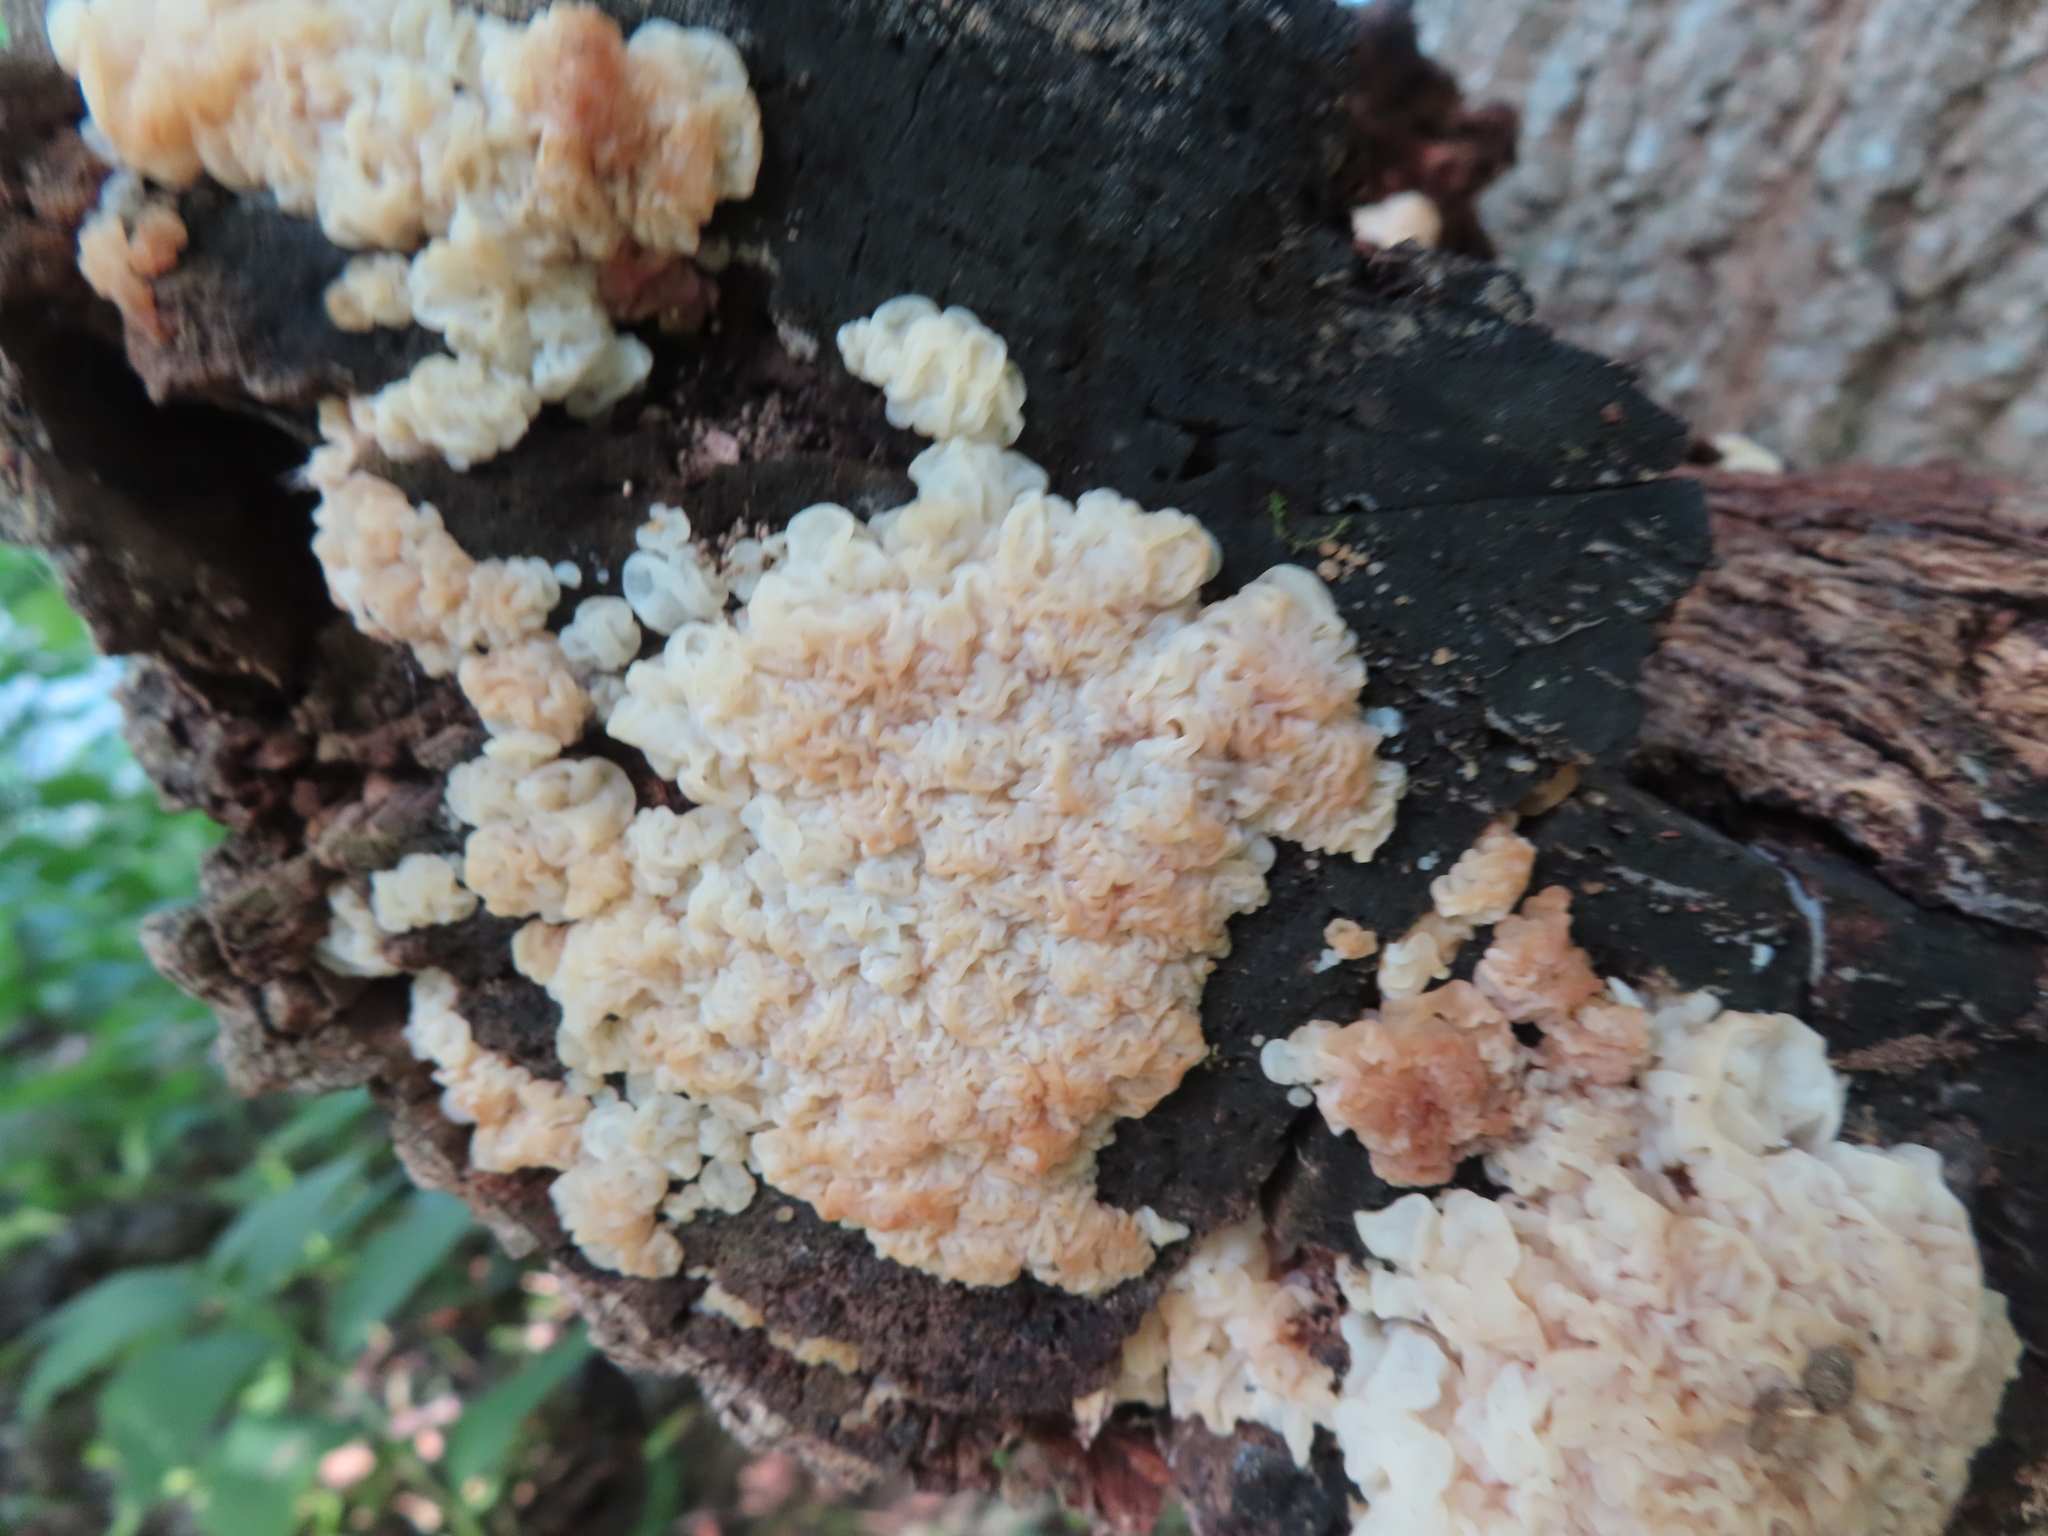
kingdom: Fungi
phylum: Basidiomycota
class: Agaricomycetes
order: Auriculariales
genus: Ductifera
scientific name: Ductifera pululahuana
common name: White jelly fungus
